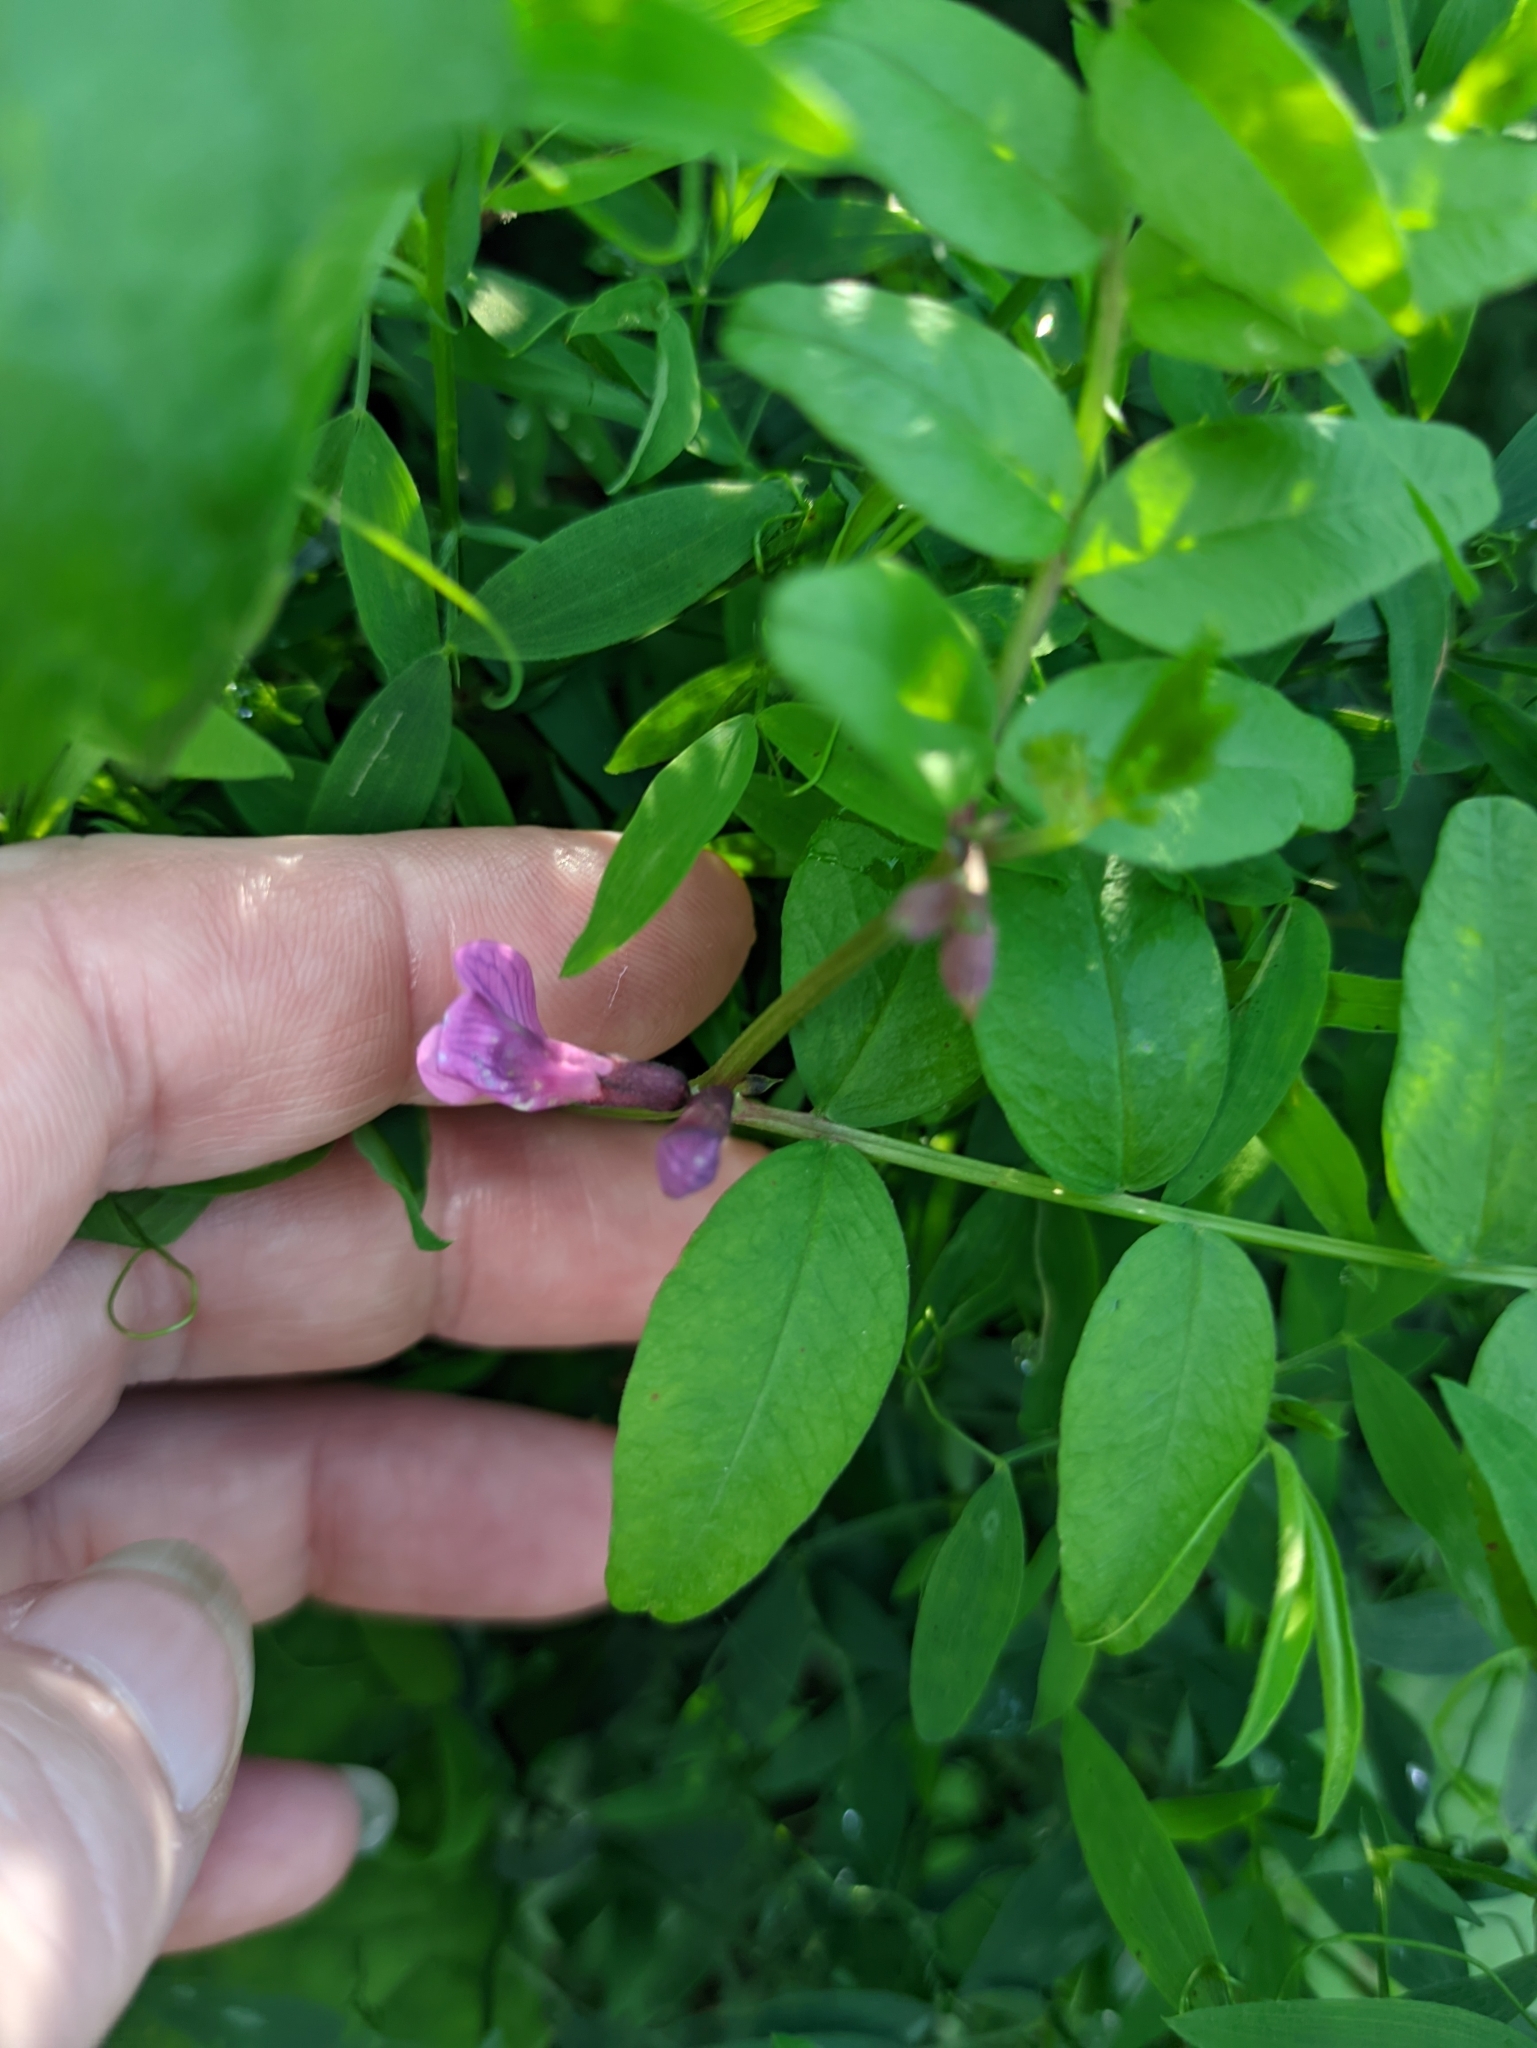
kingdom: Plantae
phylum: Tracheophyta
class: Magnoliopsida
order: Fabales
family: Fabaceae
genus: Vicia
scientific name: Vicia sepium
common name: Bush vetch
